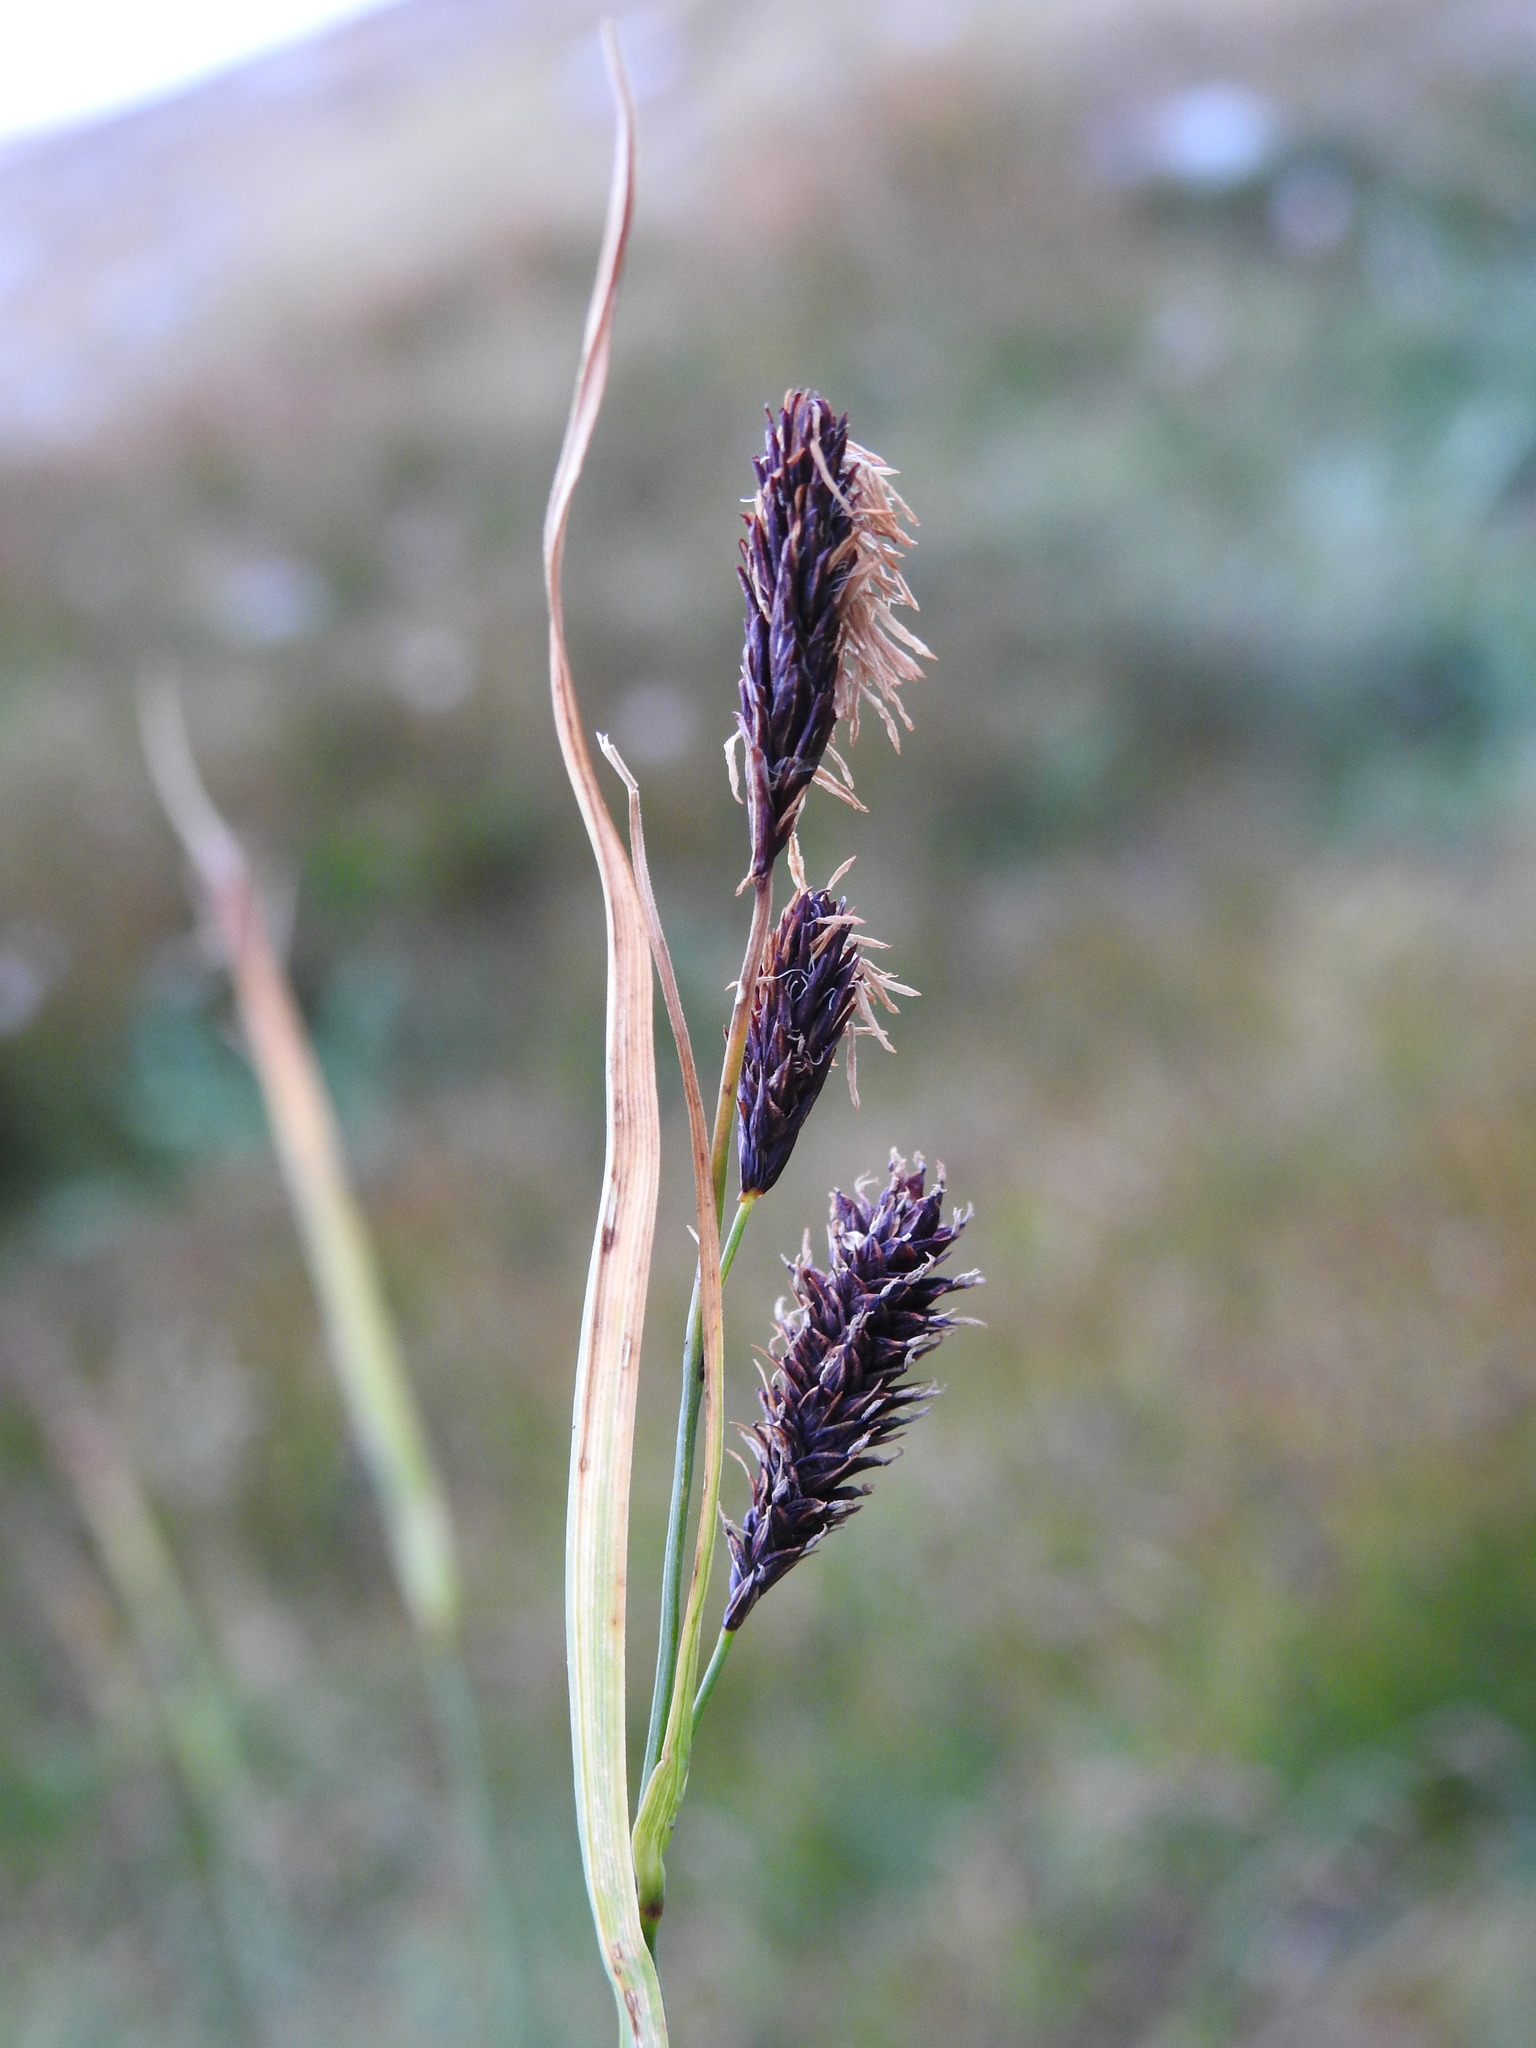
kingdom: Plantae
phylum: Tracheophyta
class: Liliopsida
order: Poales
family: Cyperaceae
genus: Carex
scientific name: Carex flacca
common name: Glaucous sedge
